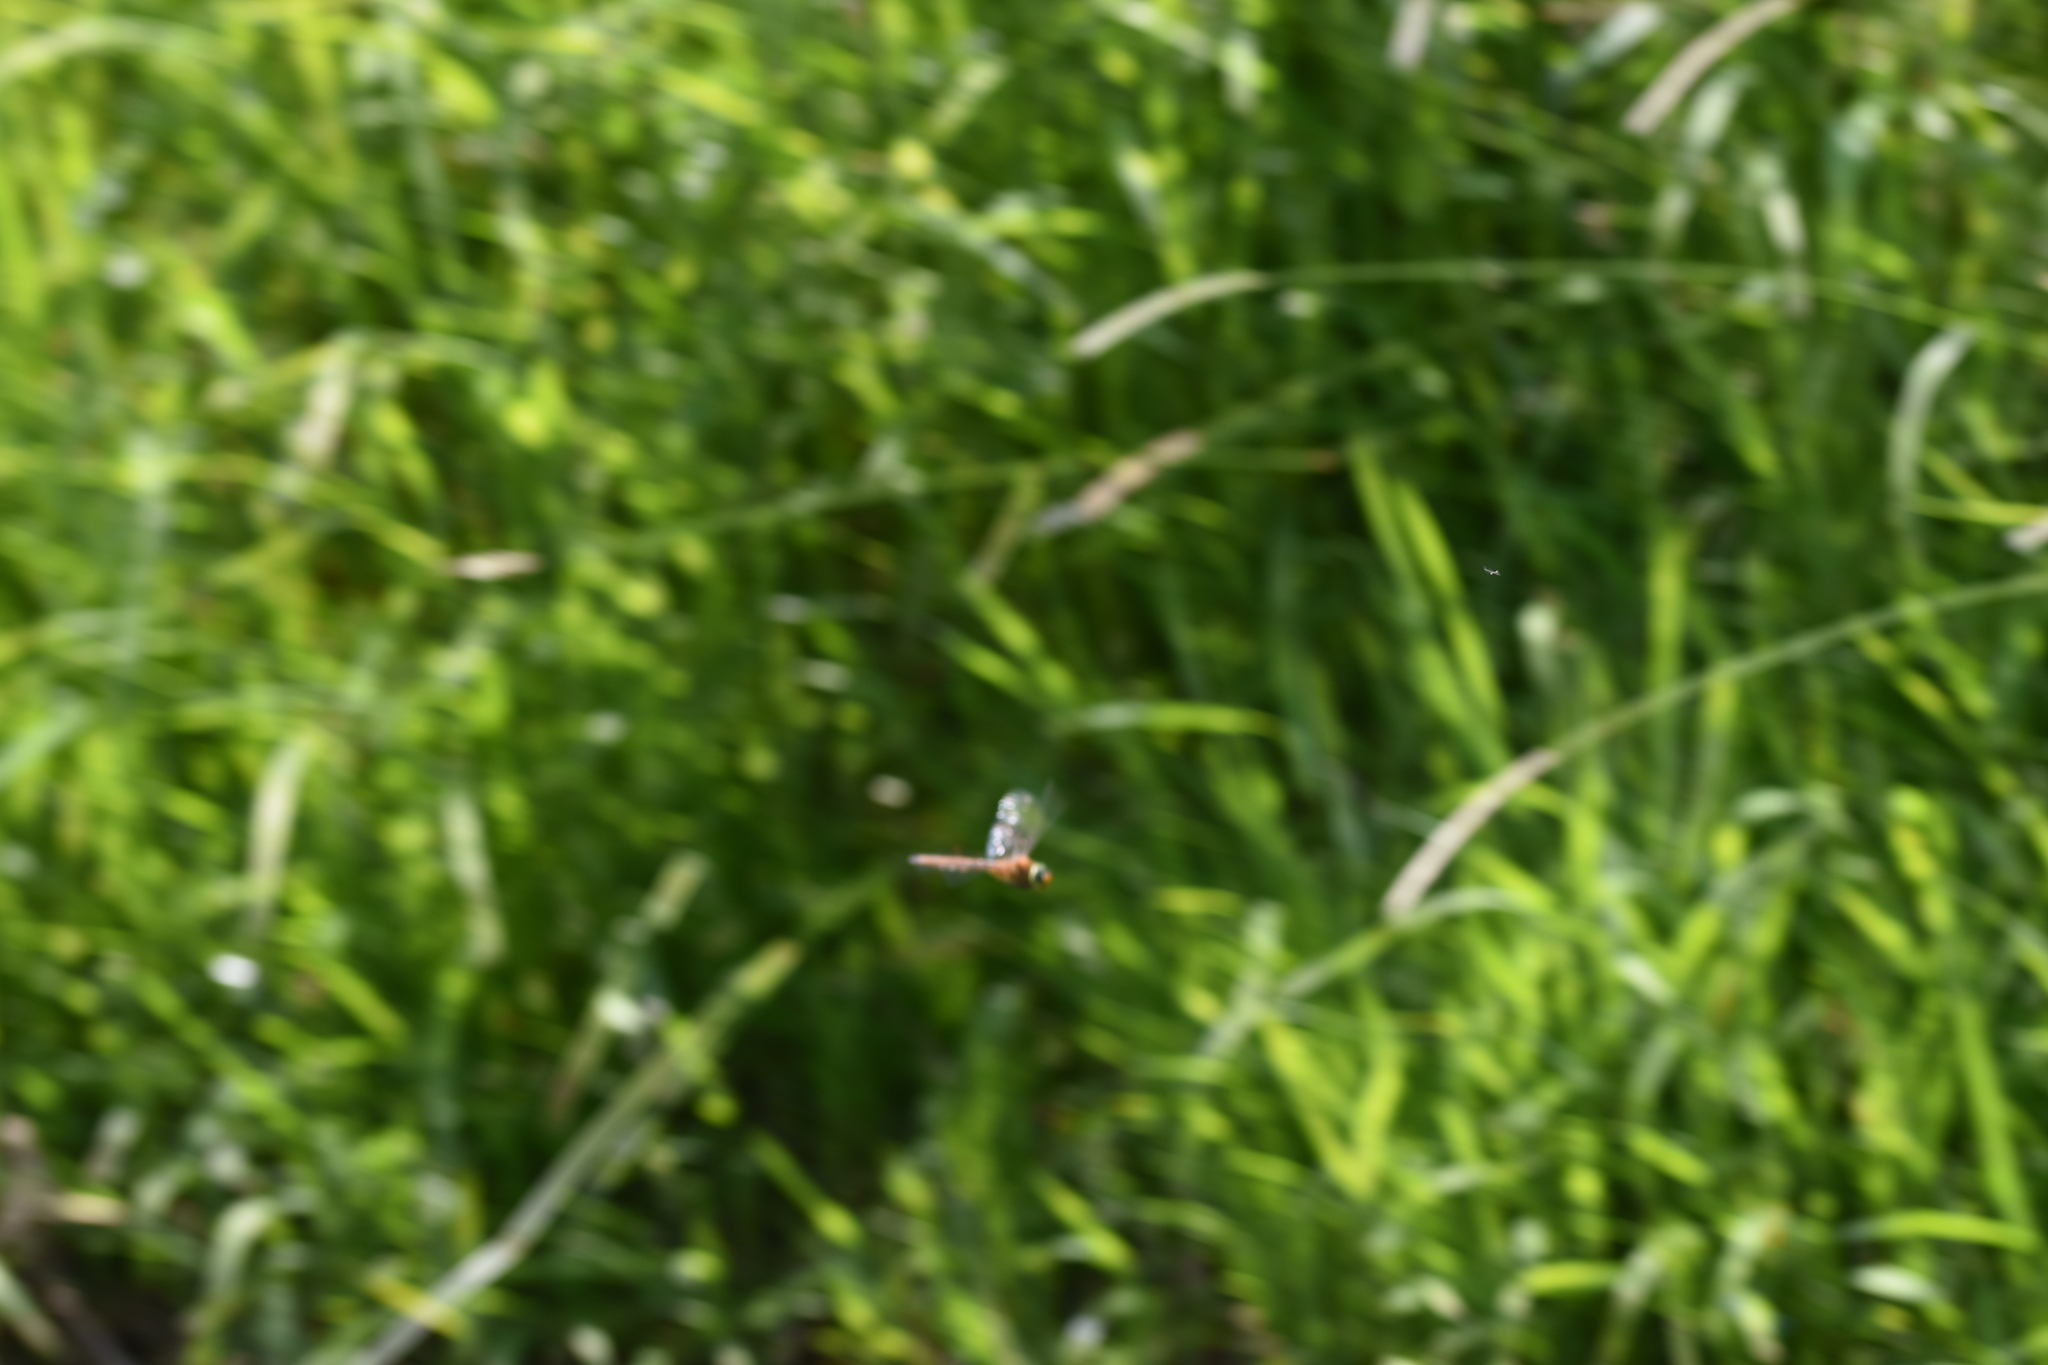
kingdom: Animalia
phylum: Arthropoda
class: Insecta
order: Odonata
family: Aeshnidae
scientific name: Aeshnidae
